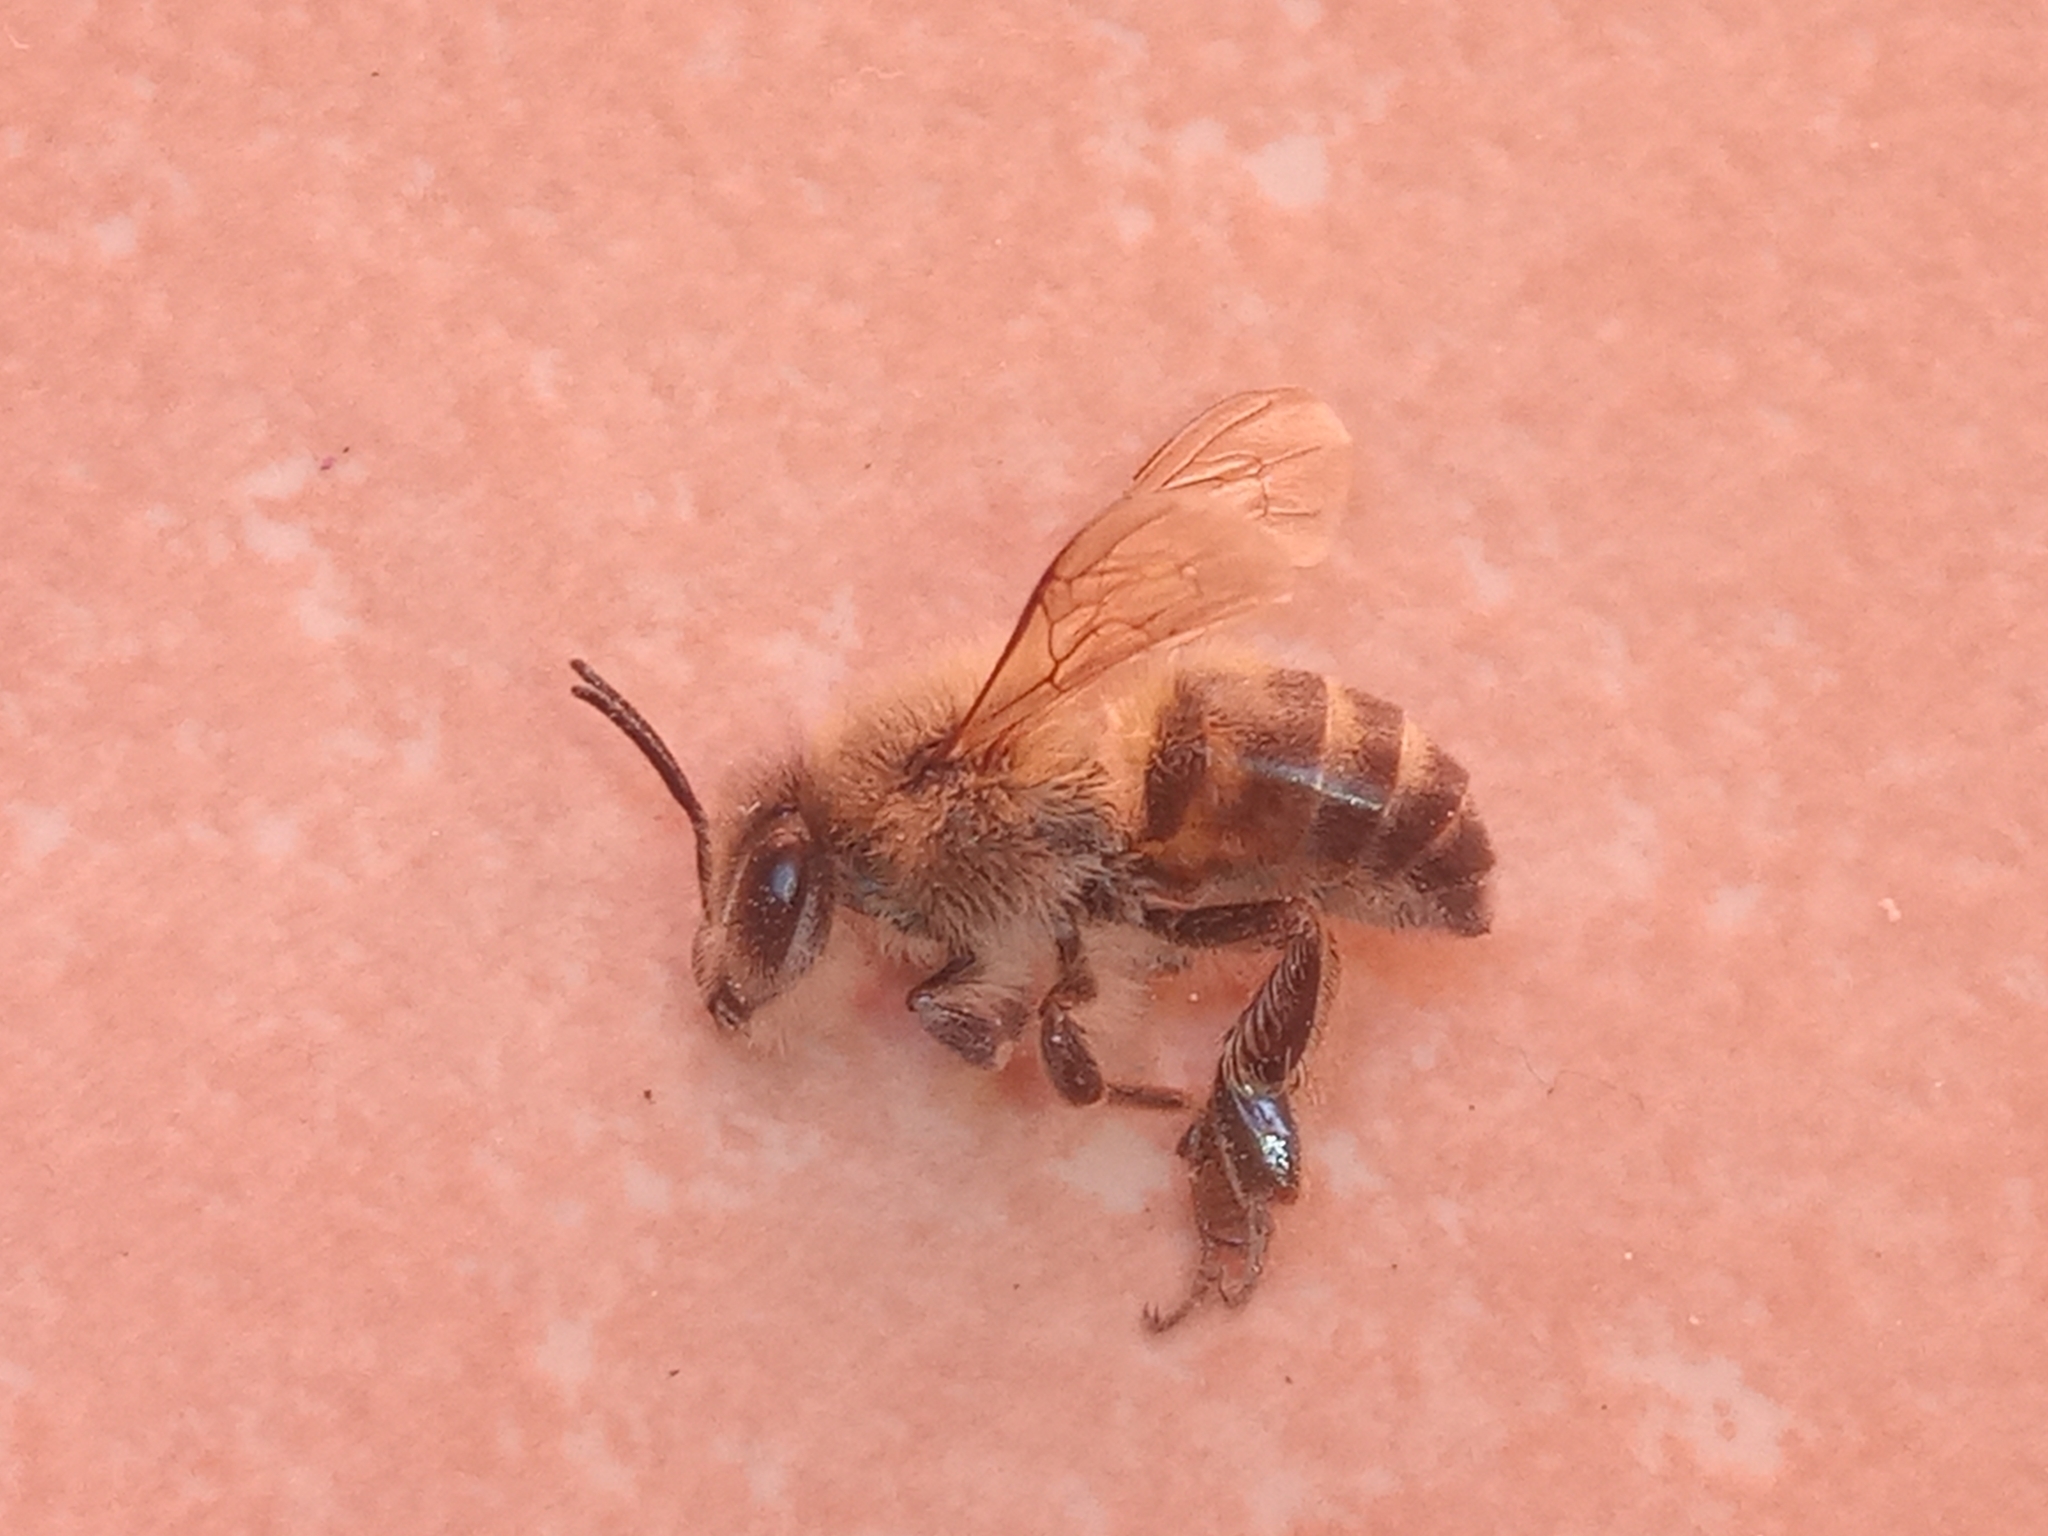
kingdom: Animalia
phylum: Arthropoda
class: Insecta
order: Hymenoptera
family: Apidae
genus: Apis
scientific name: Apis mellifera
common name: Honey bee
